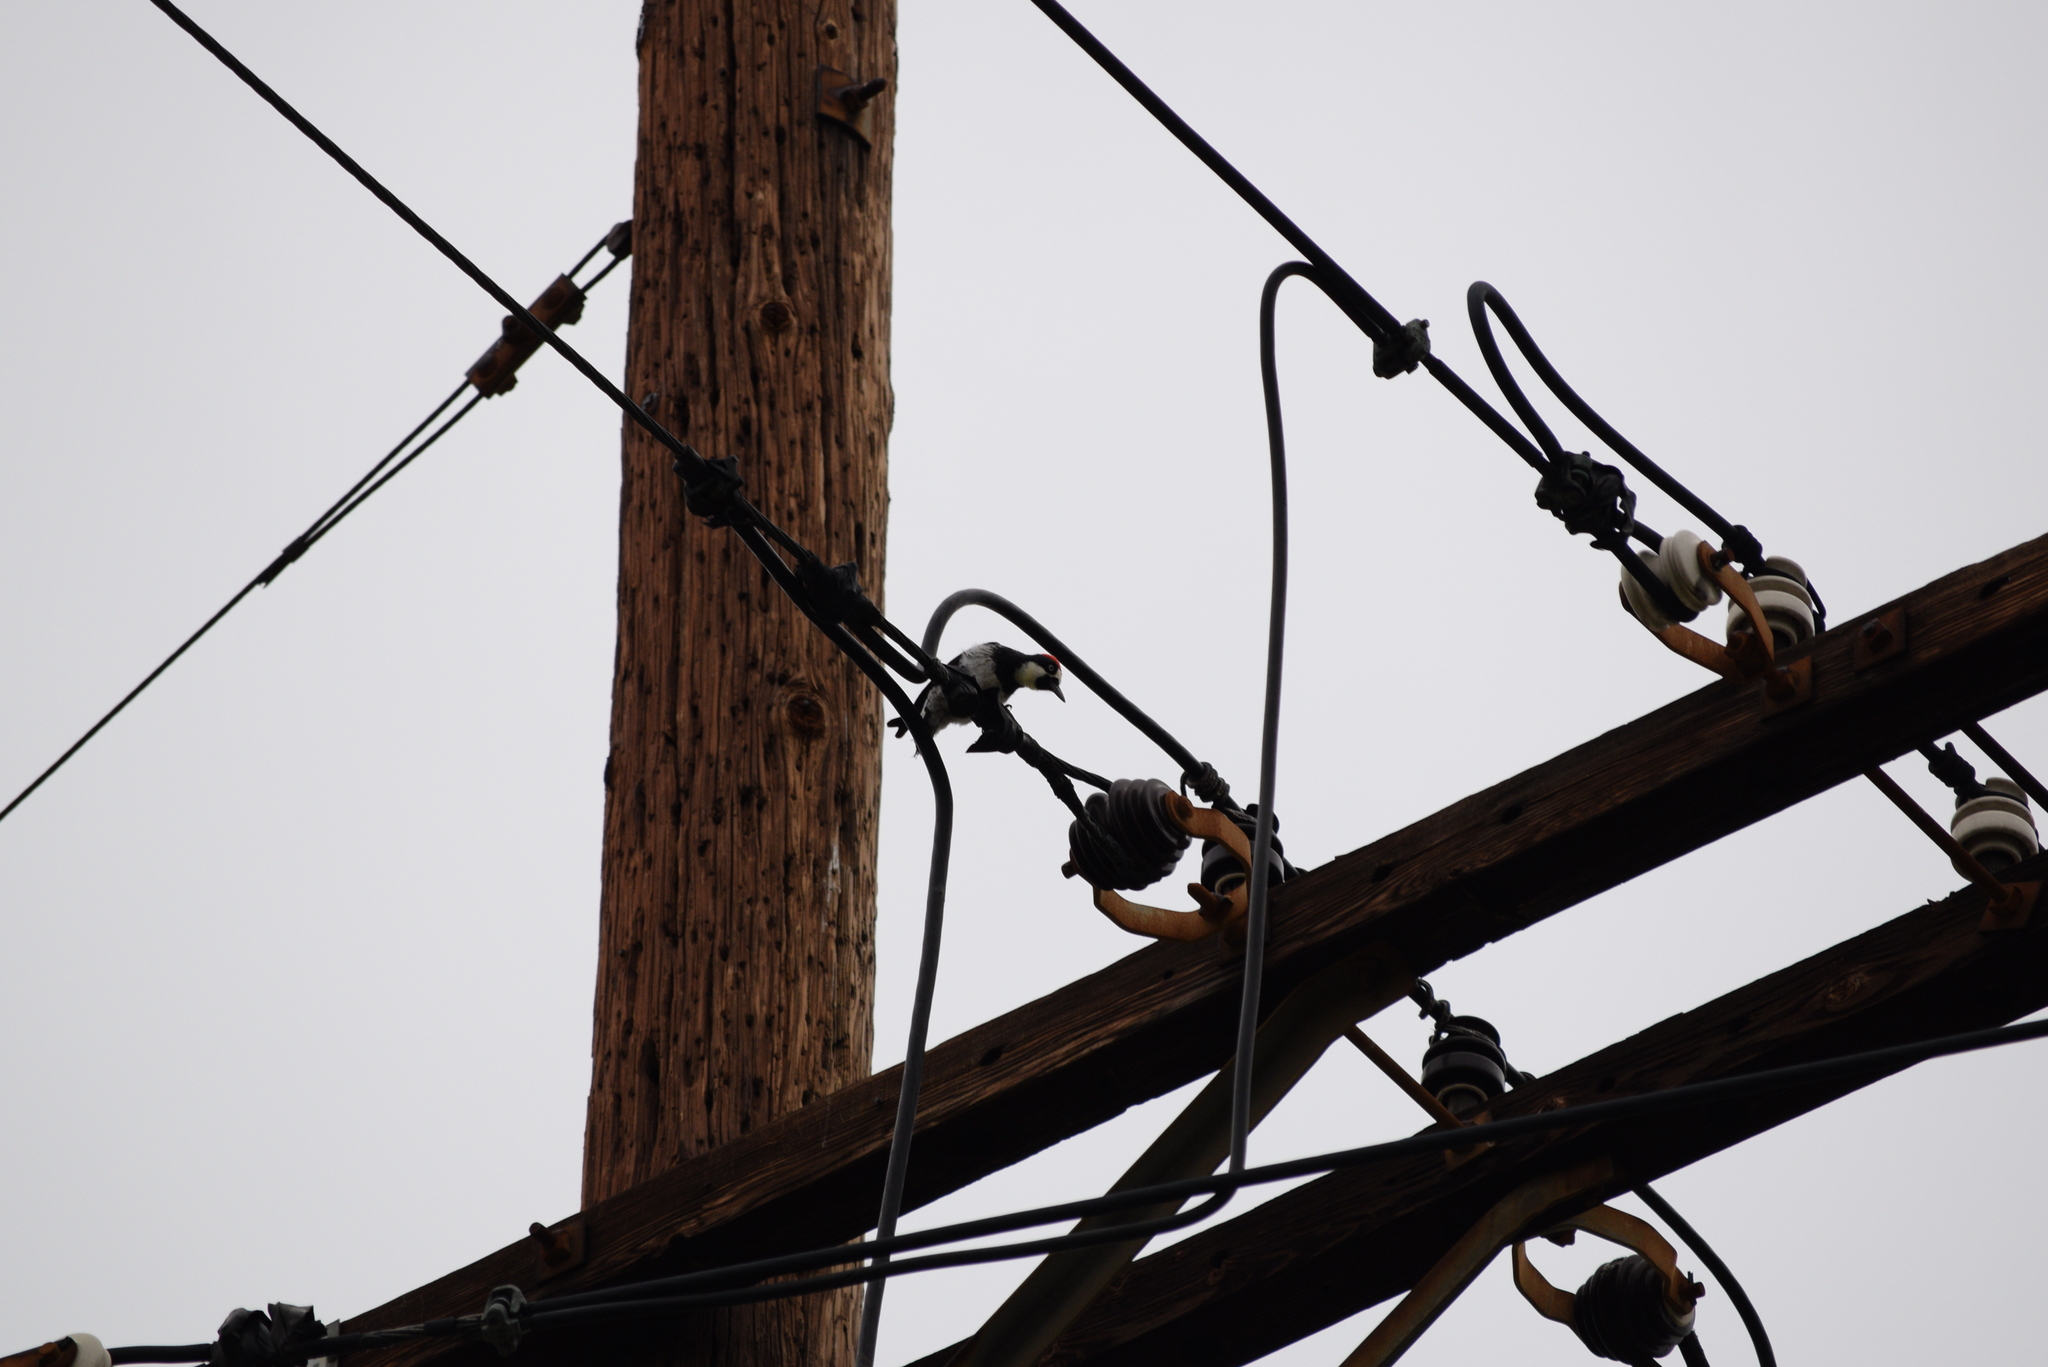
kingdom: Animalia
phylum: Chordata
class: Aves
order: Piciformes
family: Picidae
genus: Melanerpes
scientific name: Melanerpes formicivorus
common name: Acorn woodpecker
